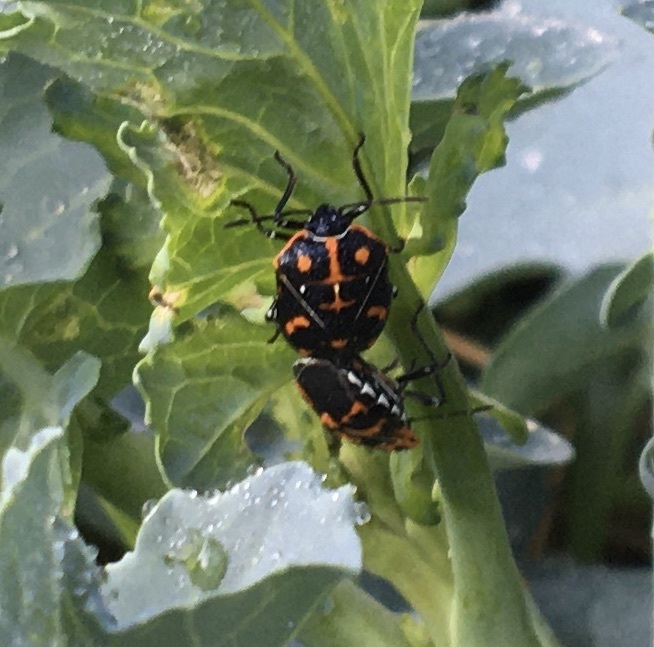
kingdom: Animalia
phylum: Arthropoda
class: Insecta
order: Hemiptera
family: Pentatomidae
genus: Murgantia
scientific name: Murgantia histrionica
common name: Harlequin bug
